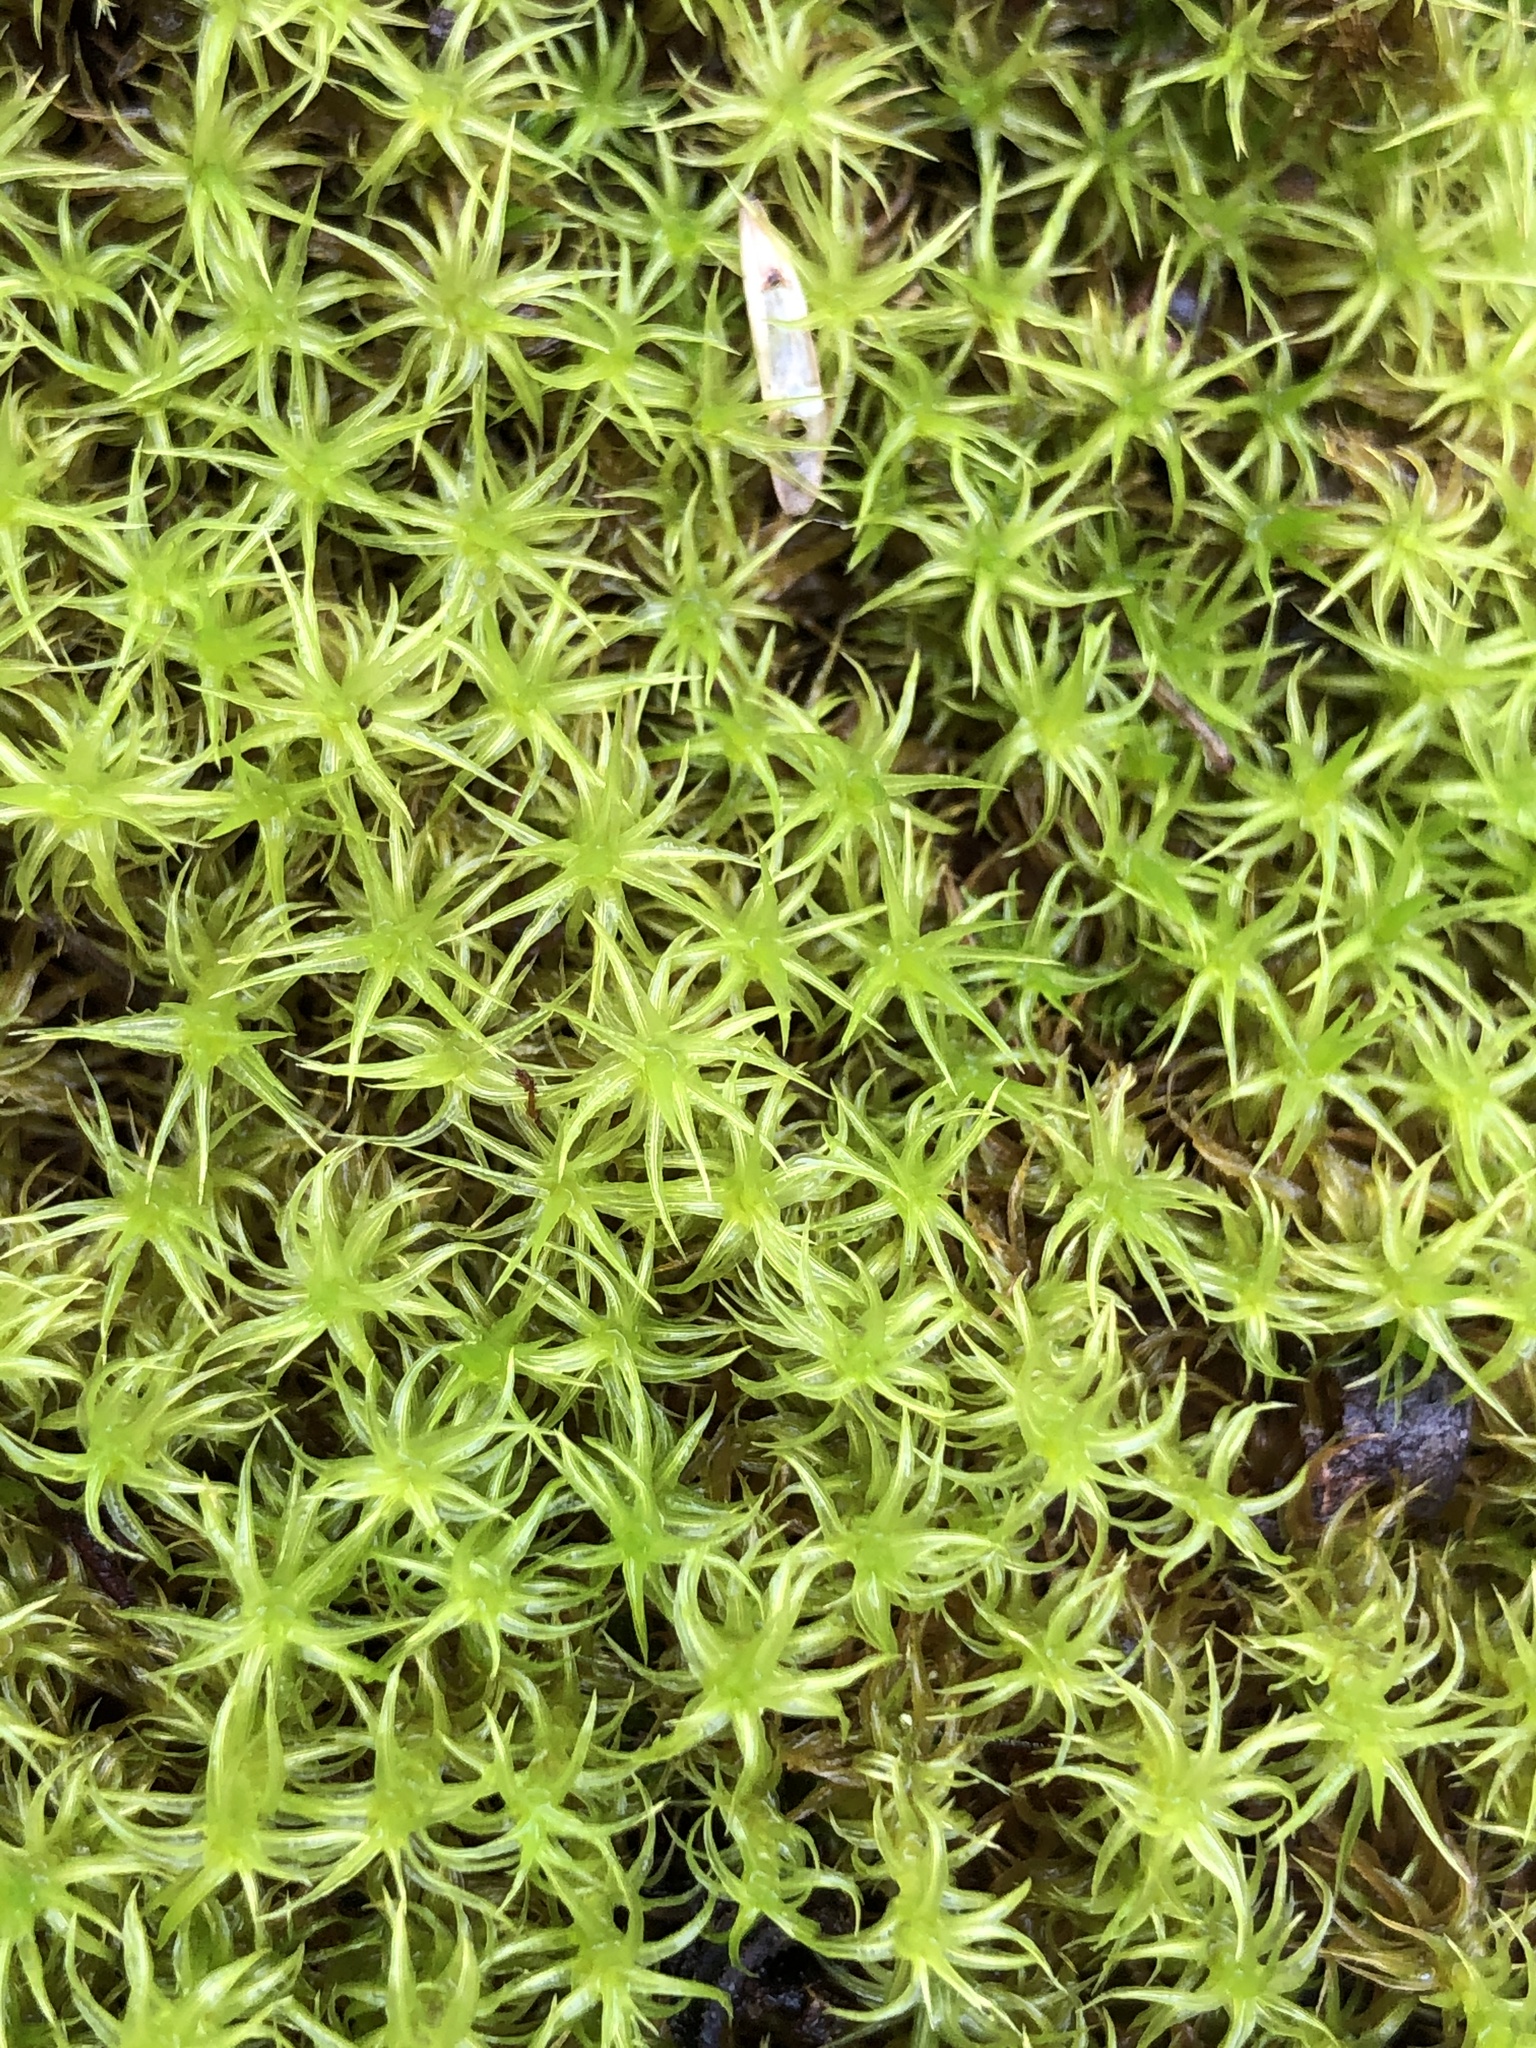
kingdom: Plantae
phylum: Bryophyta
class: Bryopsida
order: Pottiales
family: Pottiaceae
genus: Pleurochaete
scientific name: Pleurochaete squarrosa
